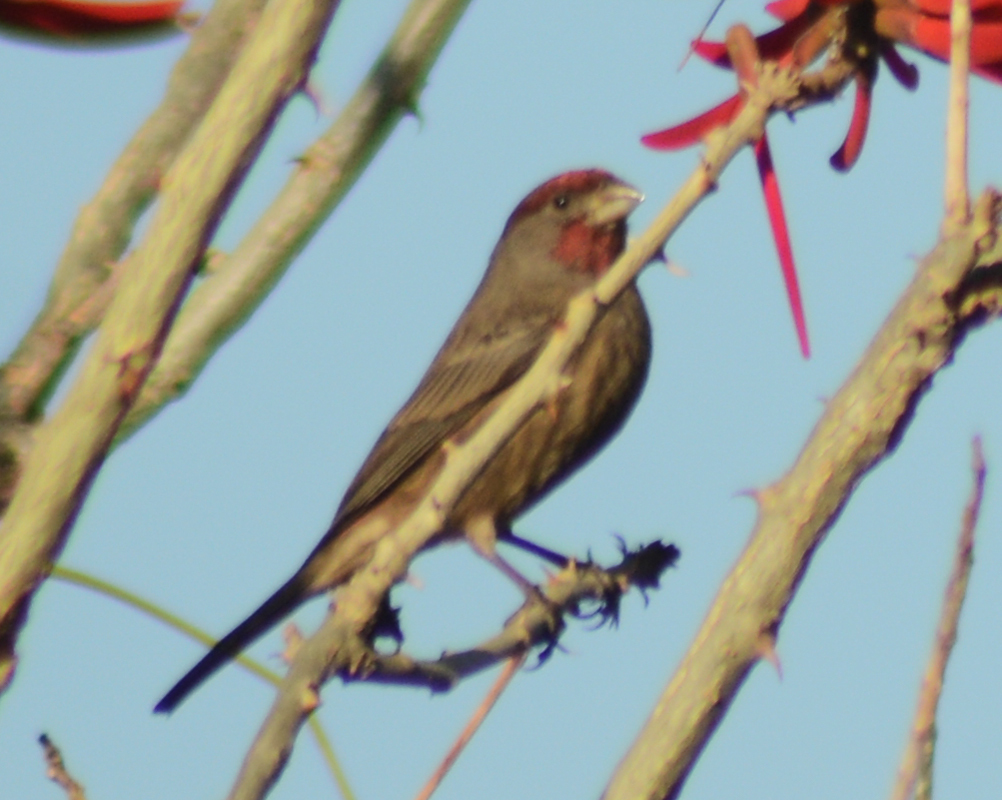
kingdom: Animalia
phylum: Chordata
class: Aves
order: Passeriformes
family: Fringillidae
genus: Haemorhous
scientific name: Haemorhous mexicanus
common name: House finch
